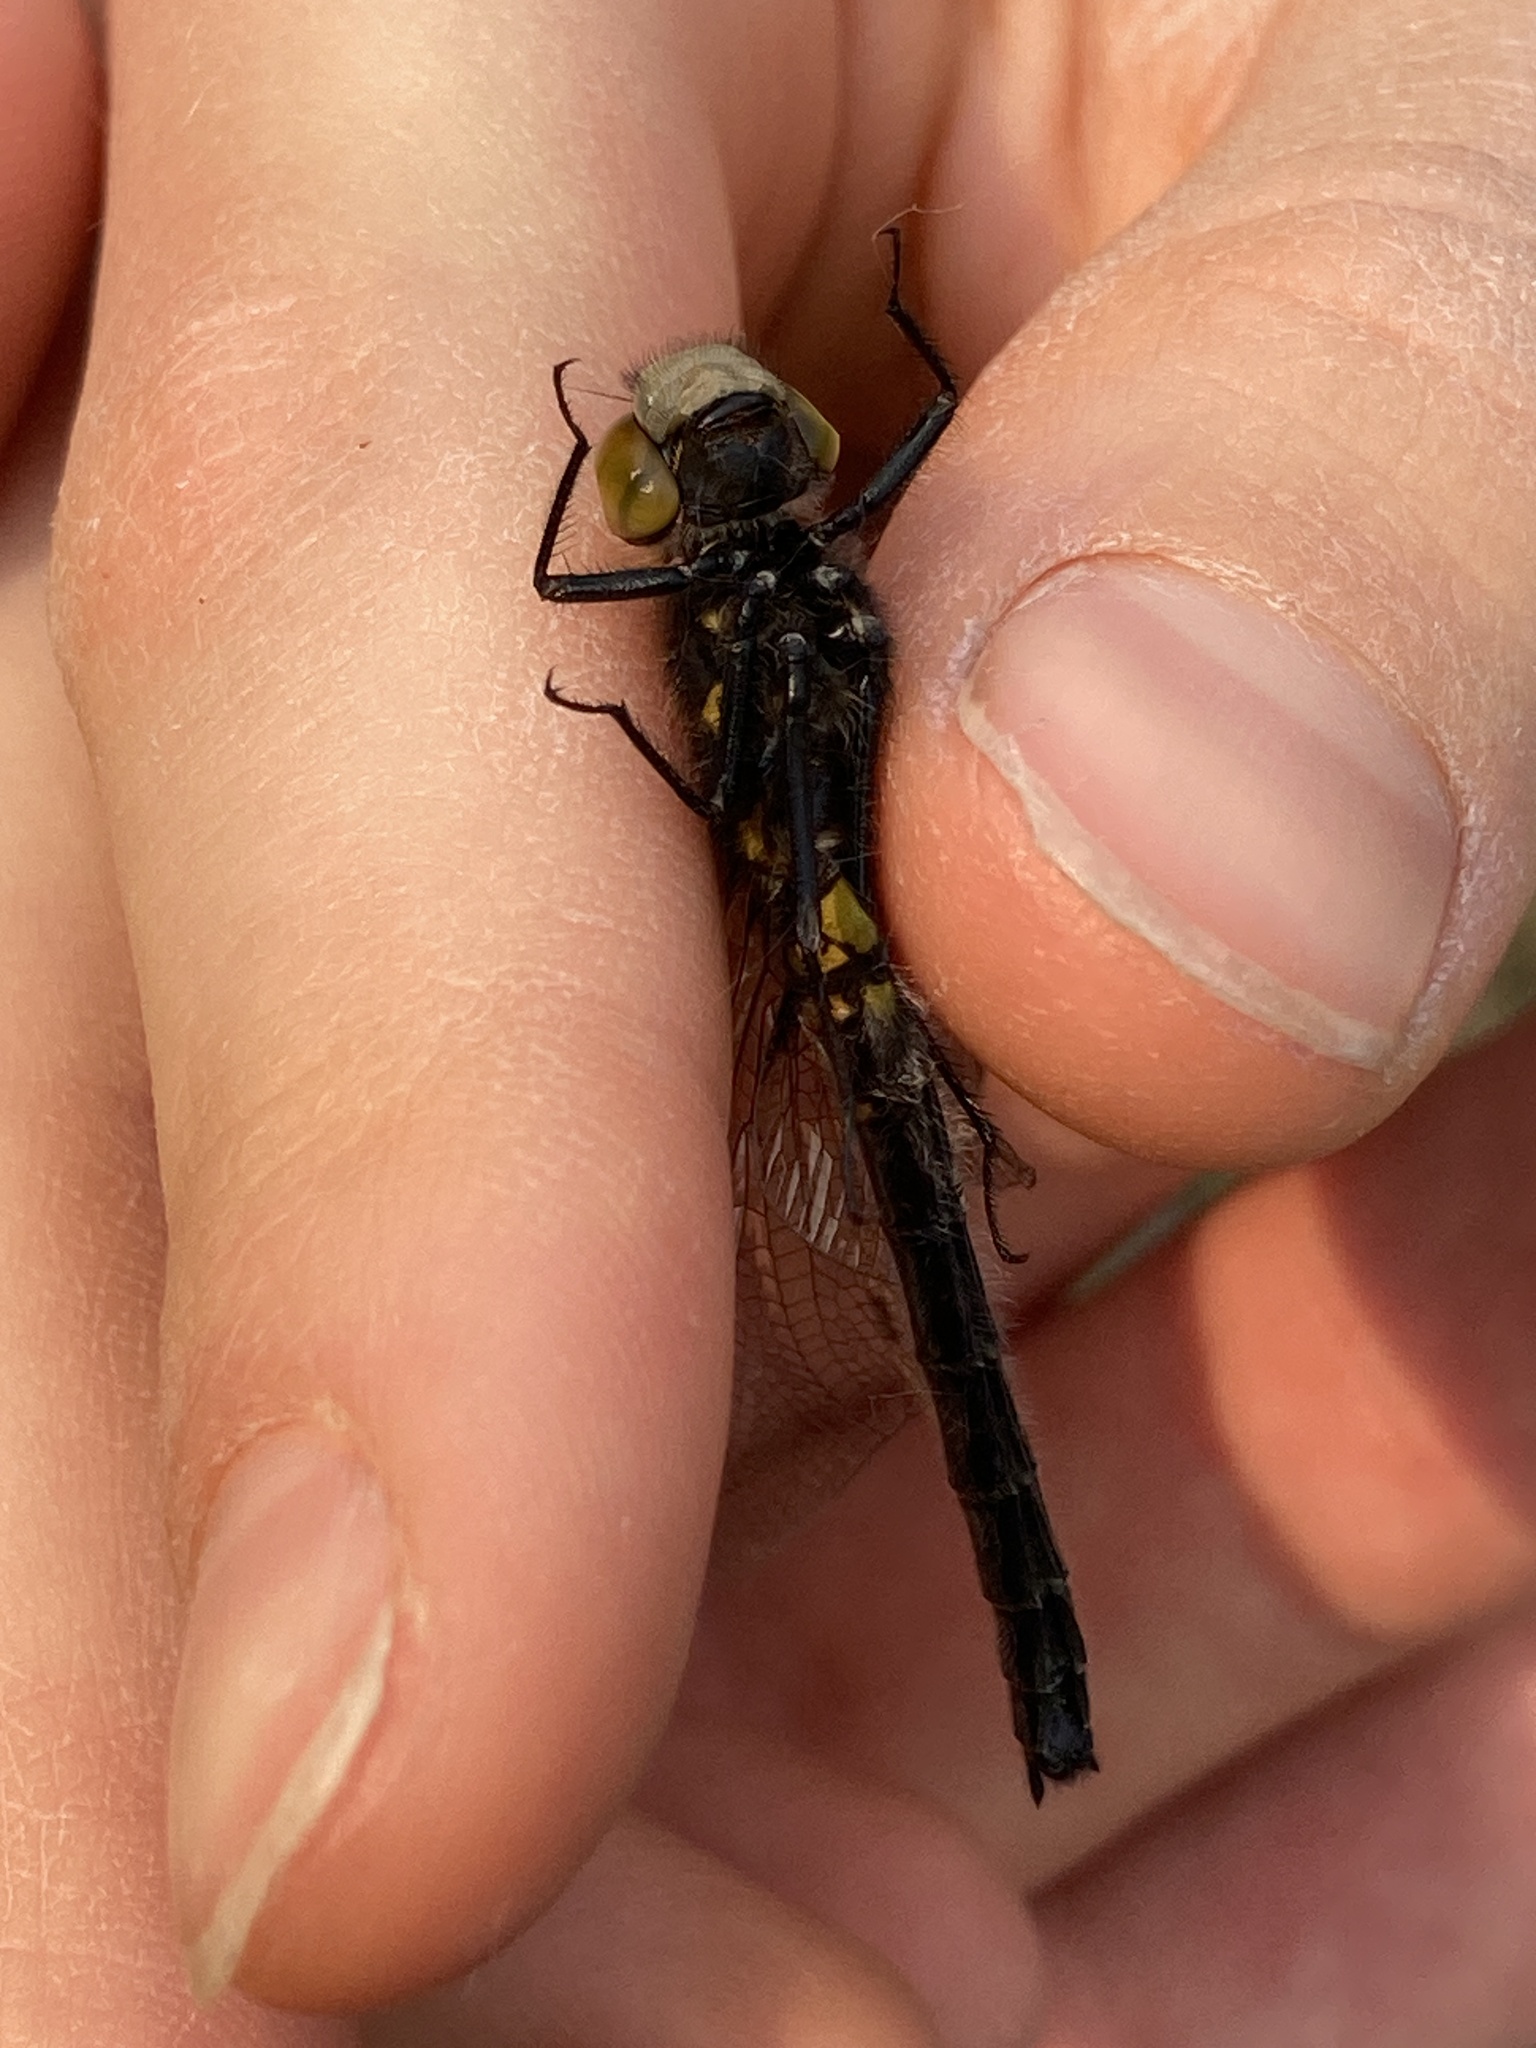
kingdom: Animalia
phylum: Arthropoda
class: Insecta
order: Odonata
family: Libellulidae
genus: Leucorrhinia
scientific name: Leucorrhinia rubicunda
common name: Ruby whiteface
